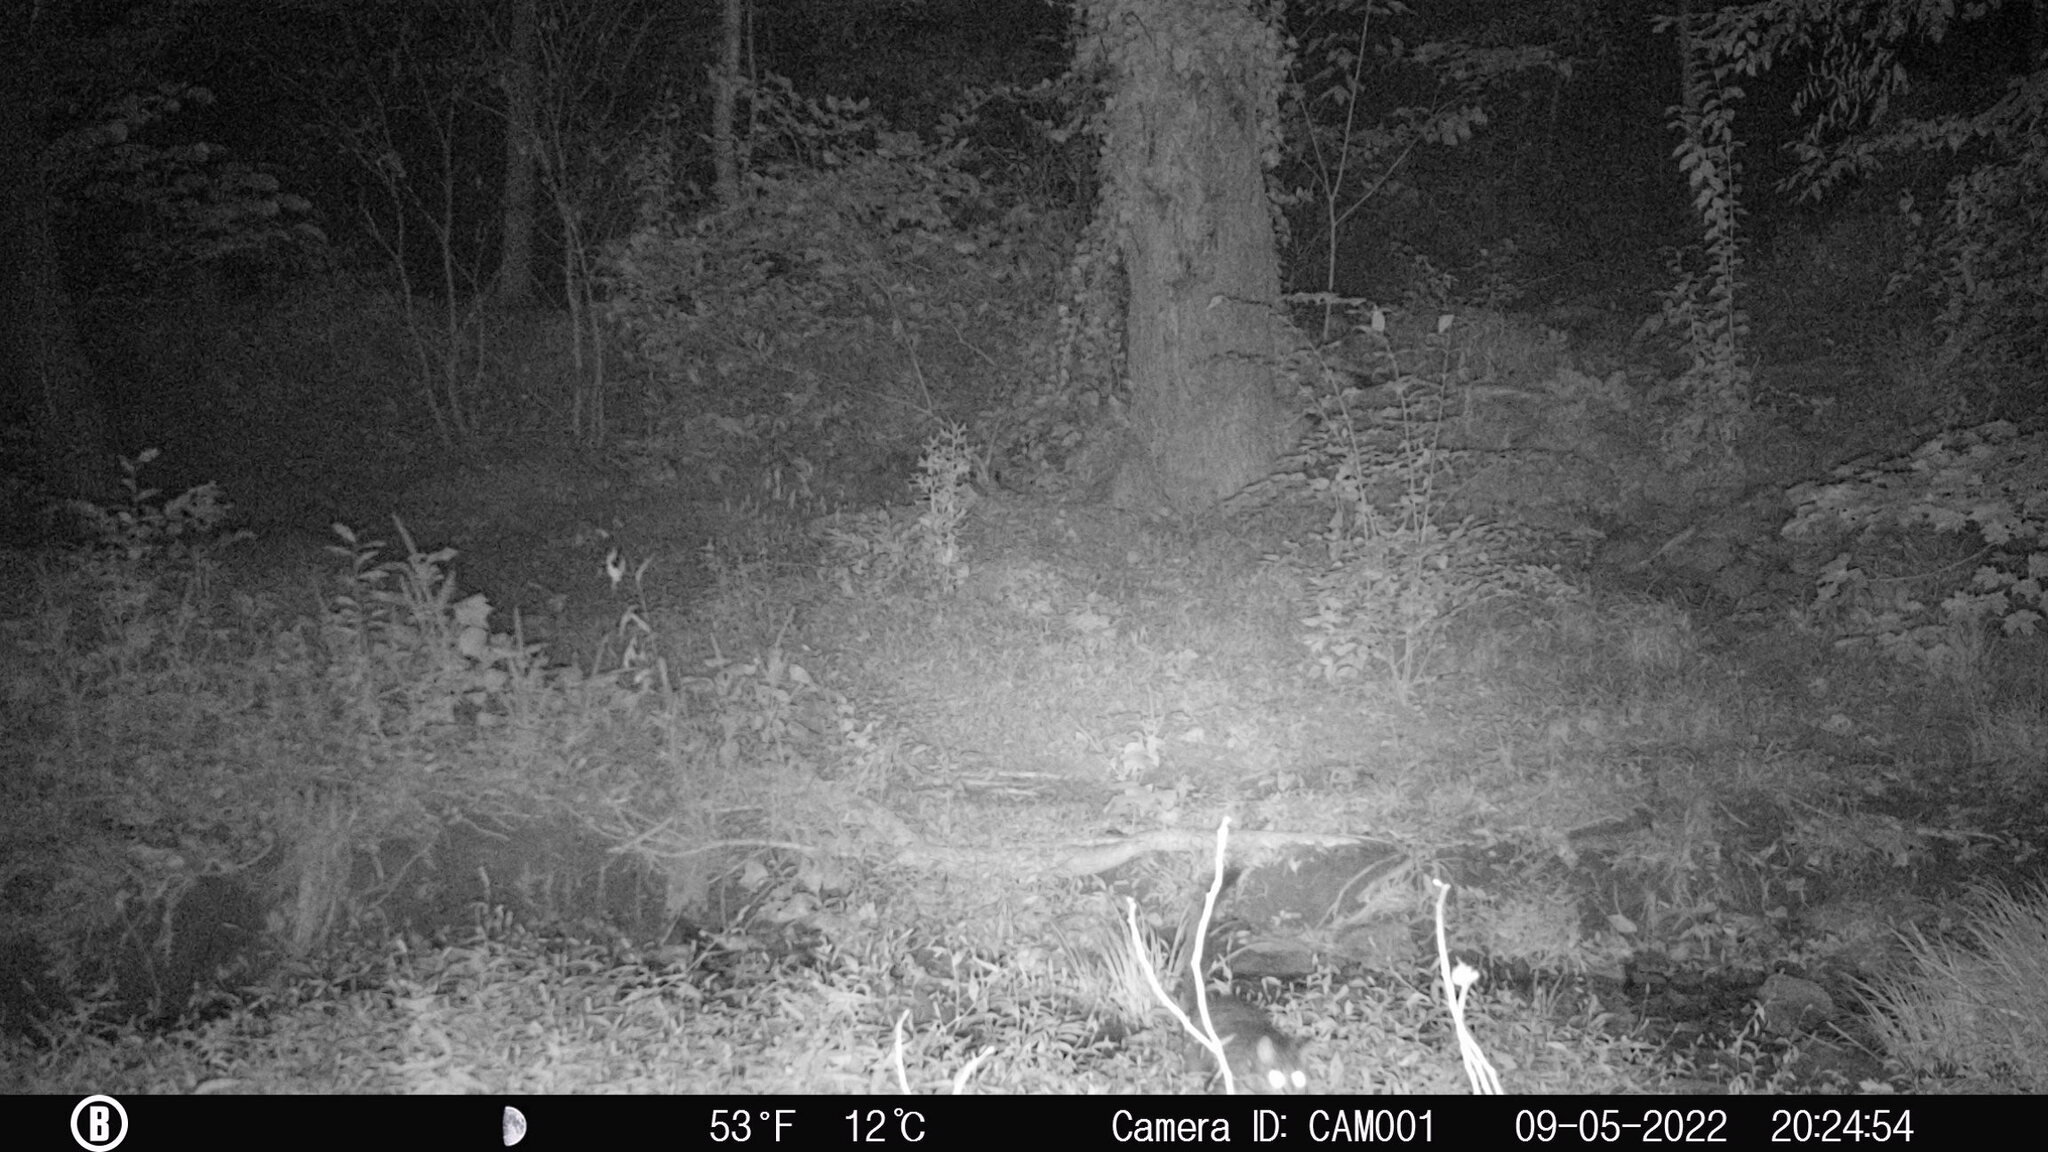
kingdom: Animalia
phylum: Chordata
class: Mammalia
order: Carnivora
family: Felidae
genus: Felis
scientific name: Felis catus
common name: Domestic cat
